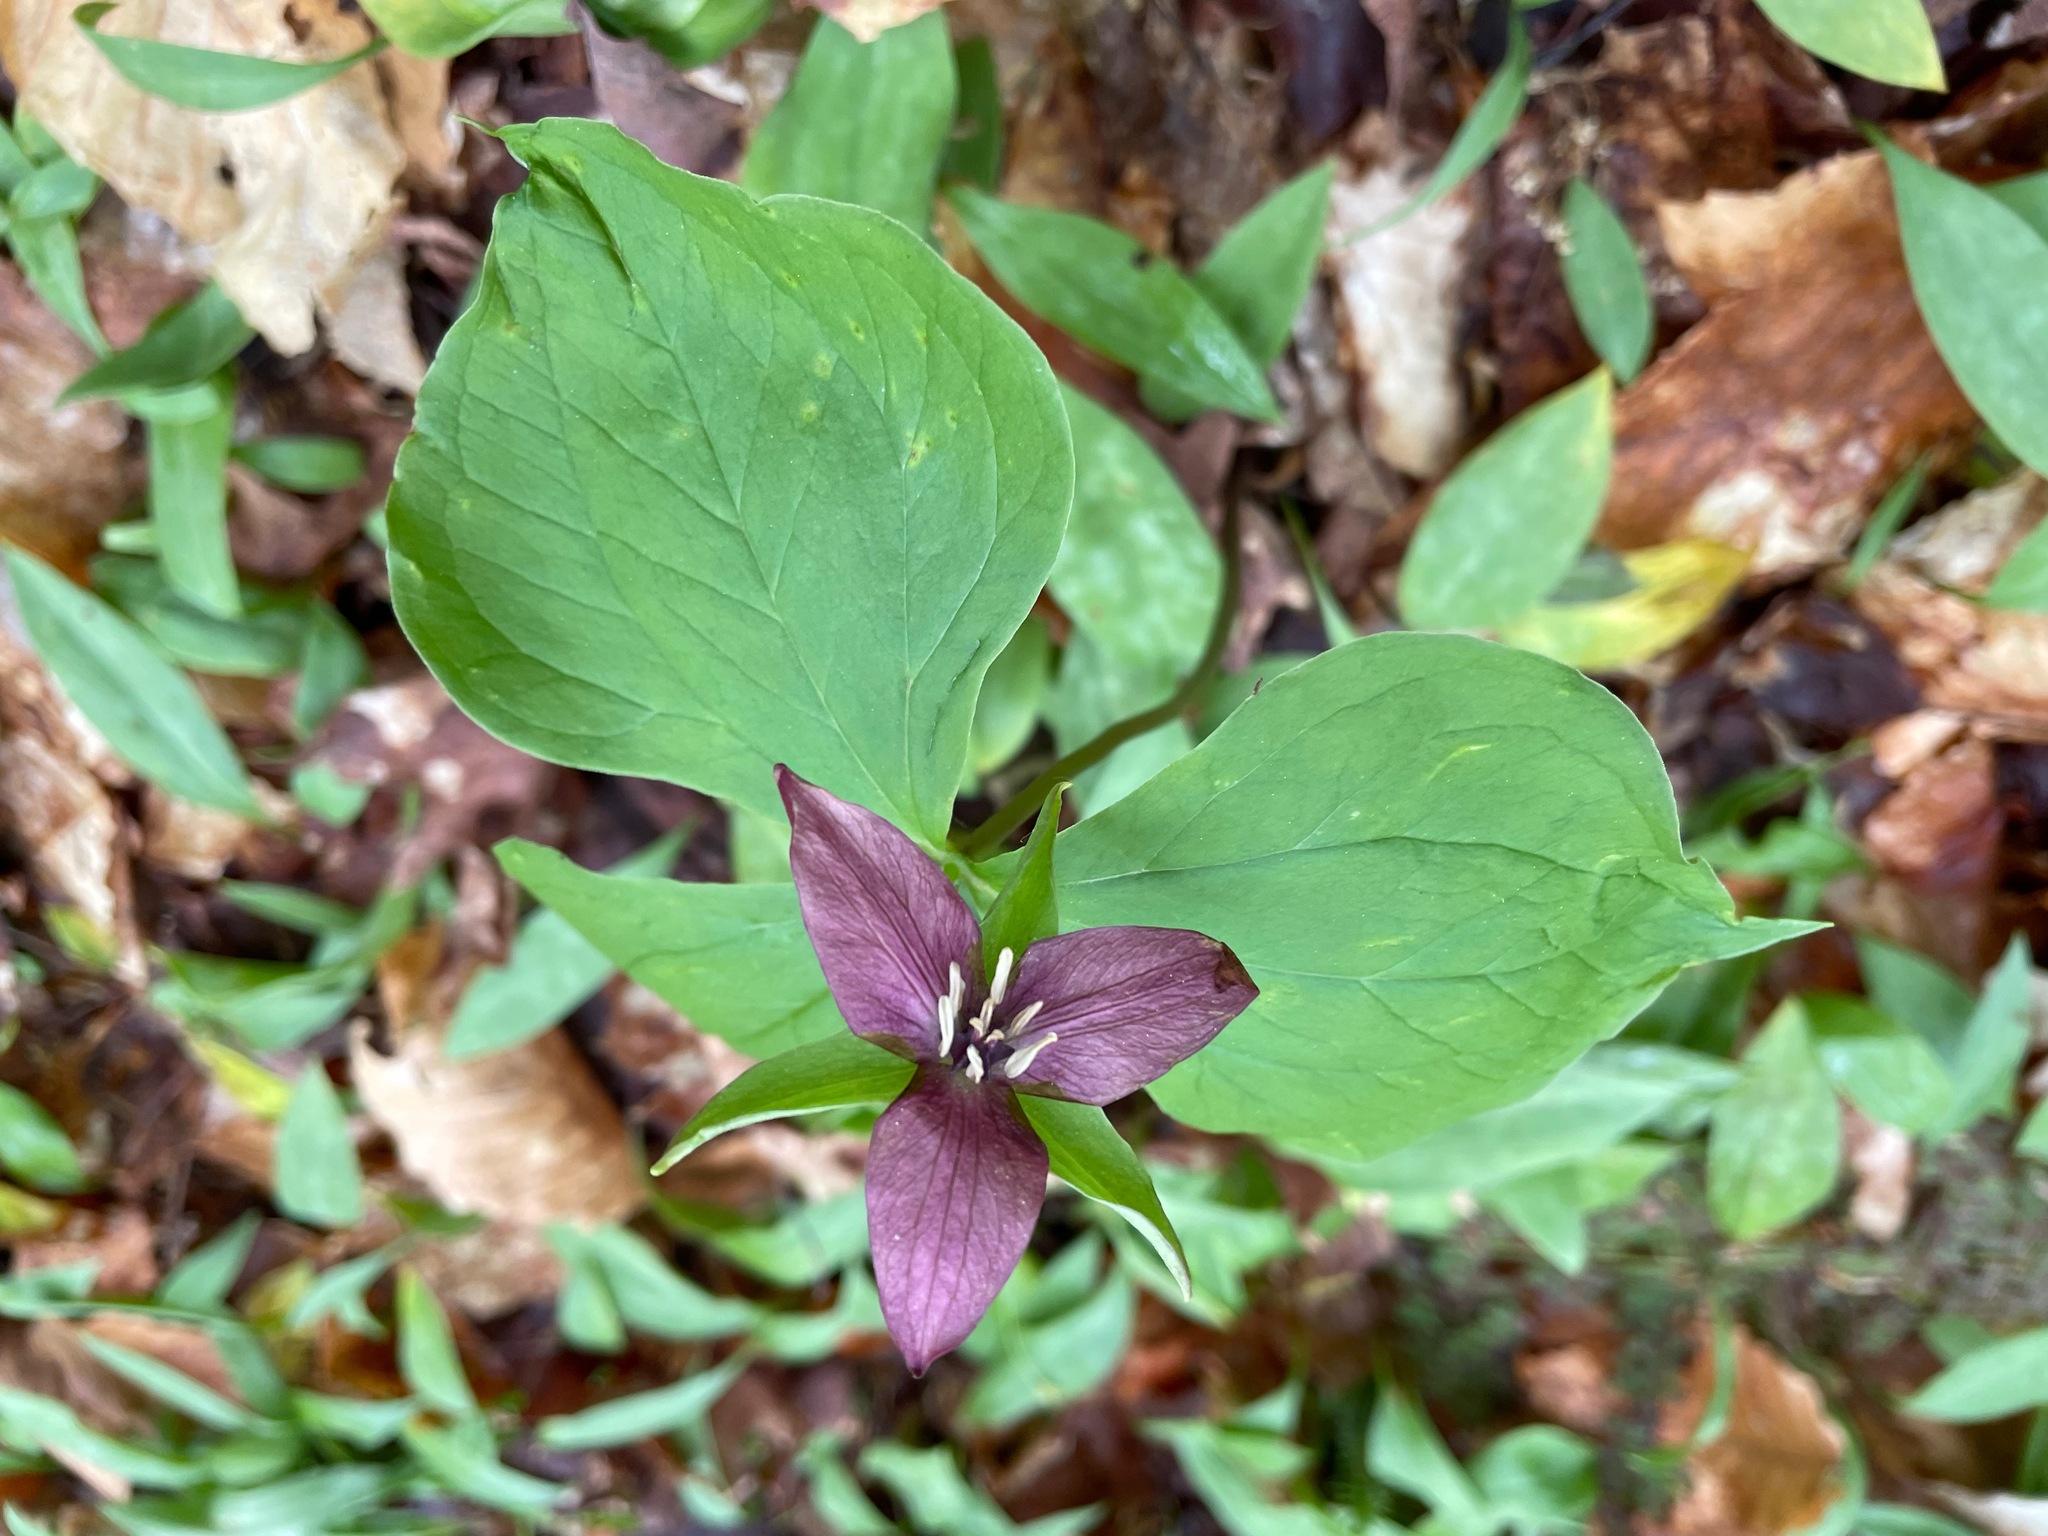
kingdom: Plantae
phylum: Tracheophyta
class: Liliopsida
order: Liliales
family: Melanthiaceae
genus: Trillium
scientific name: Trillium erectum
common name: Purple trillium
